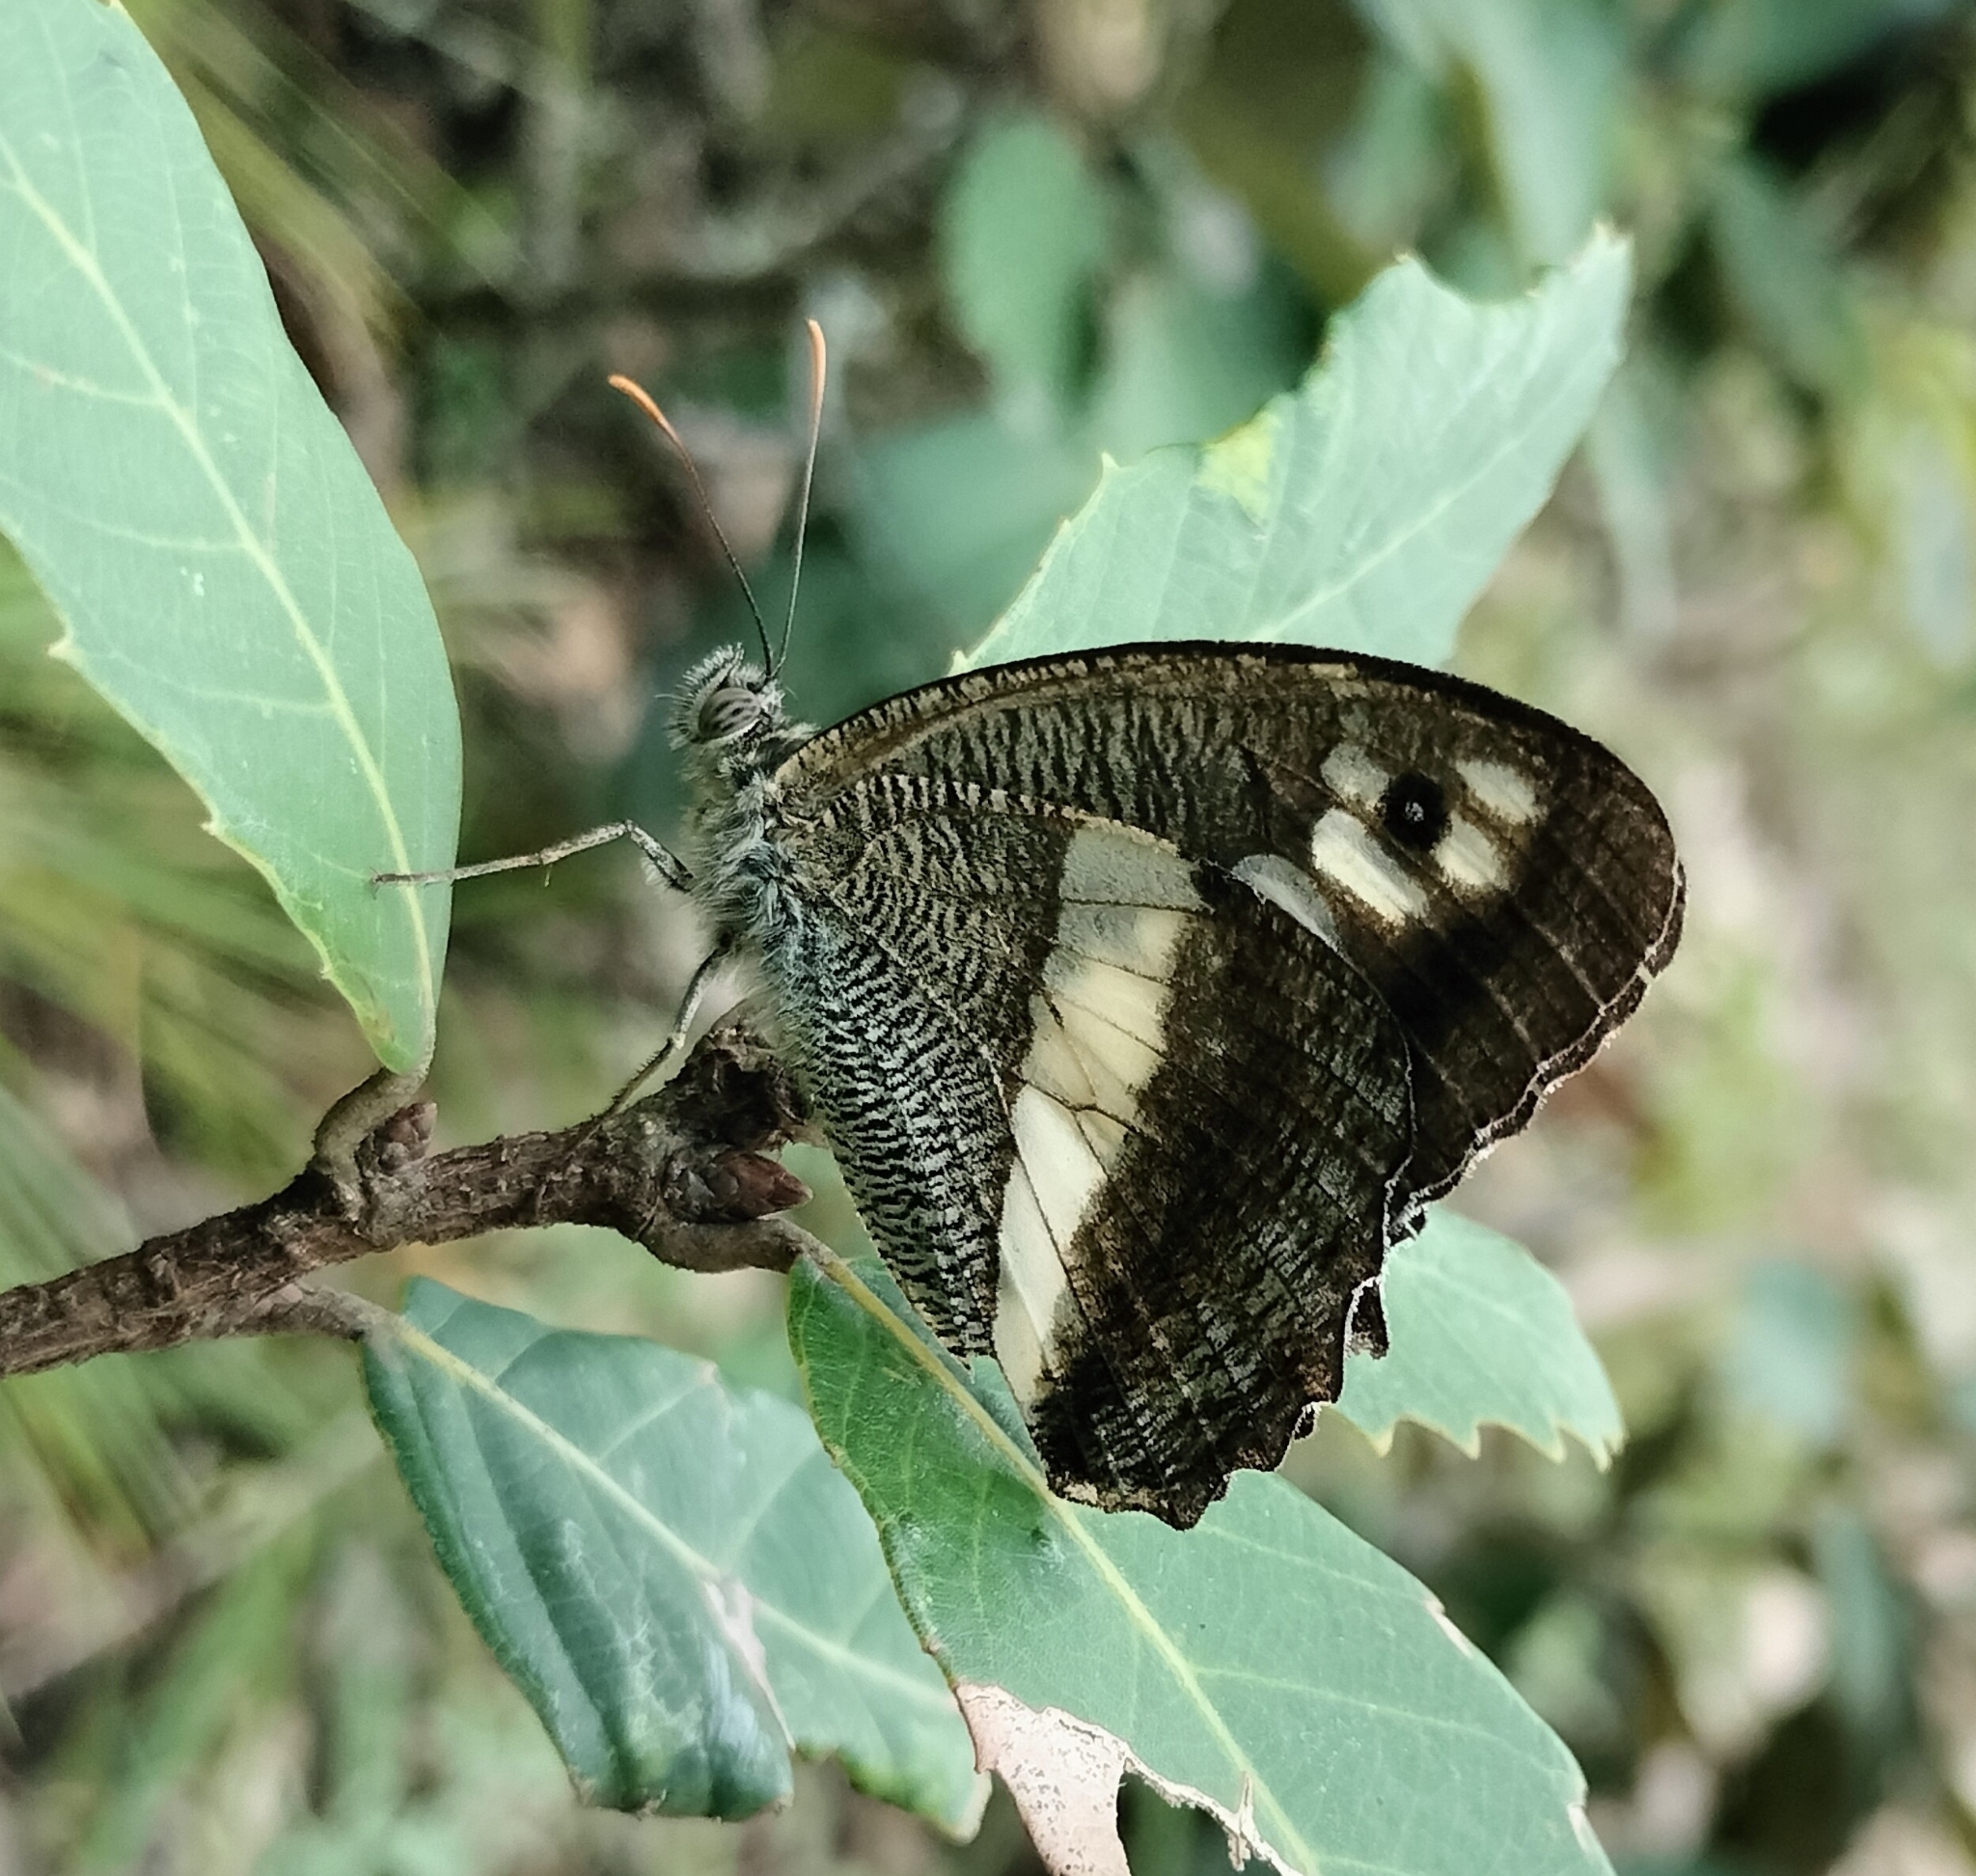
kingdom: Animalia
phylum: Arthropoda
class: Insecta
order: Lepidoptera
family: Nymphalidae
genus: Satyrus
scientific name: Satyrus
